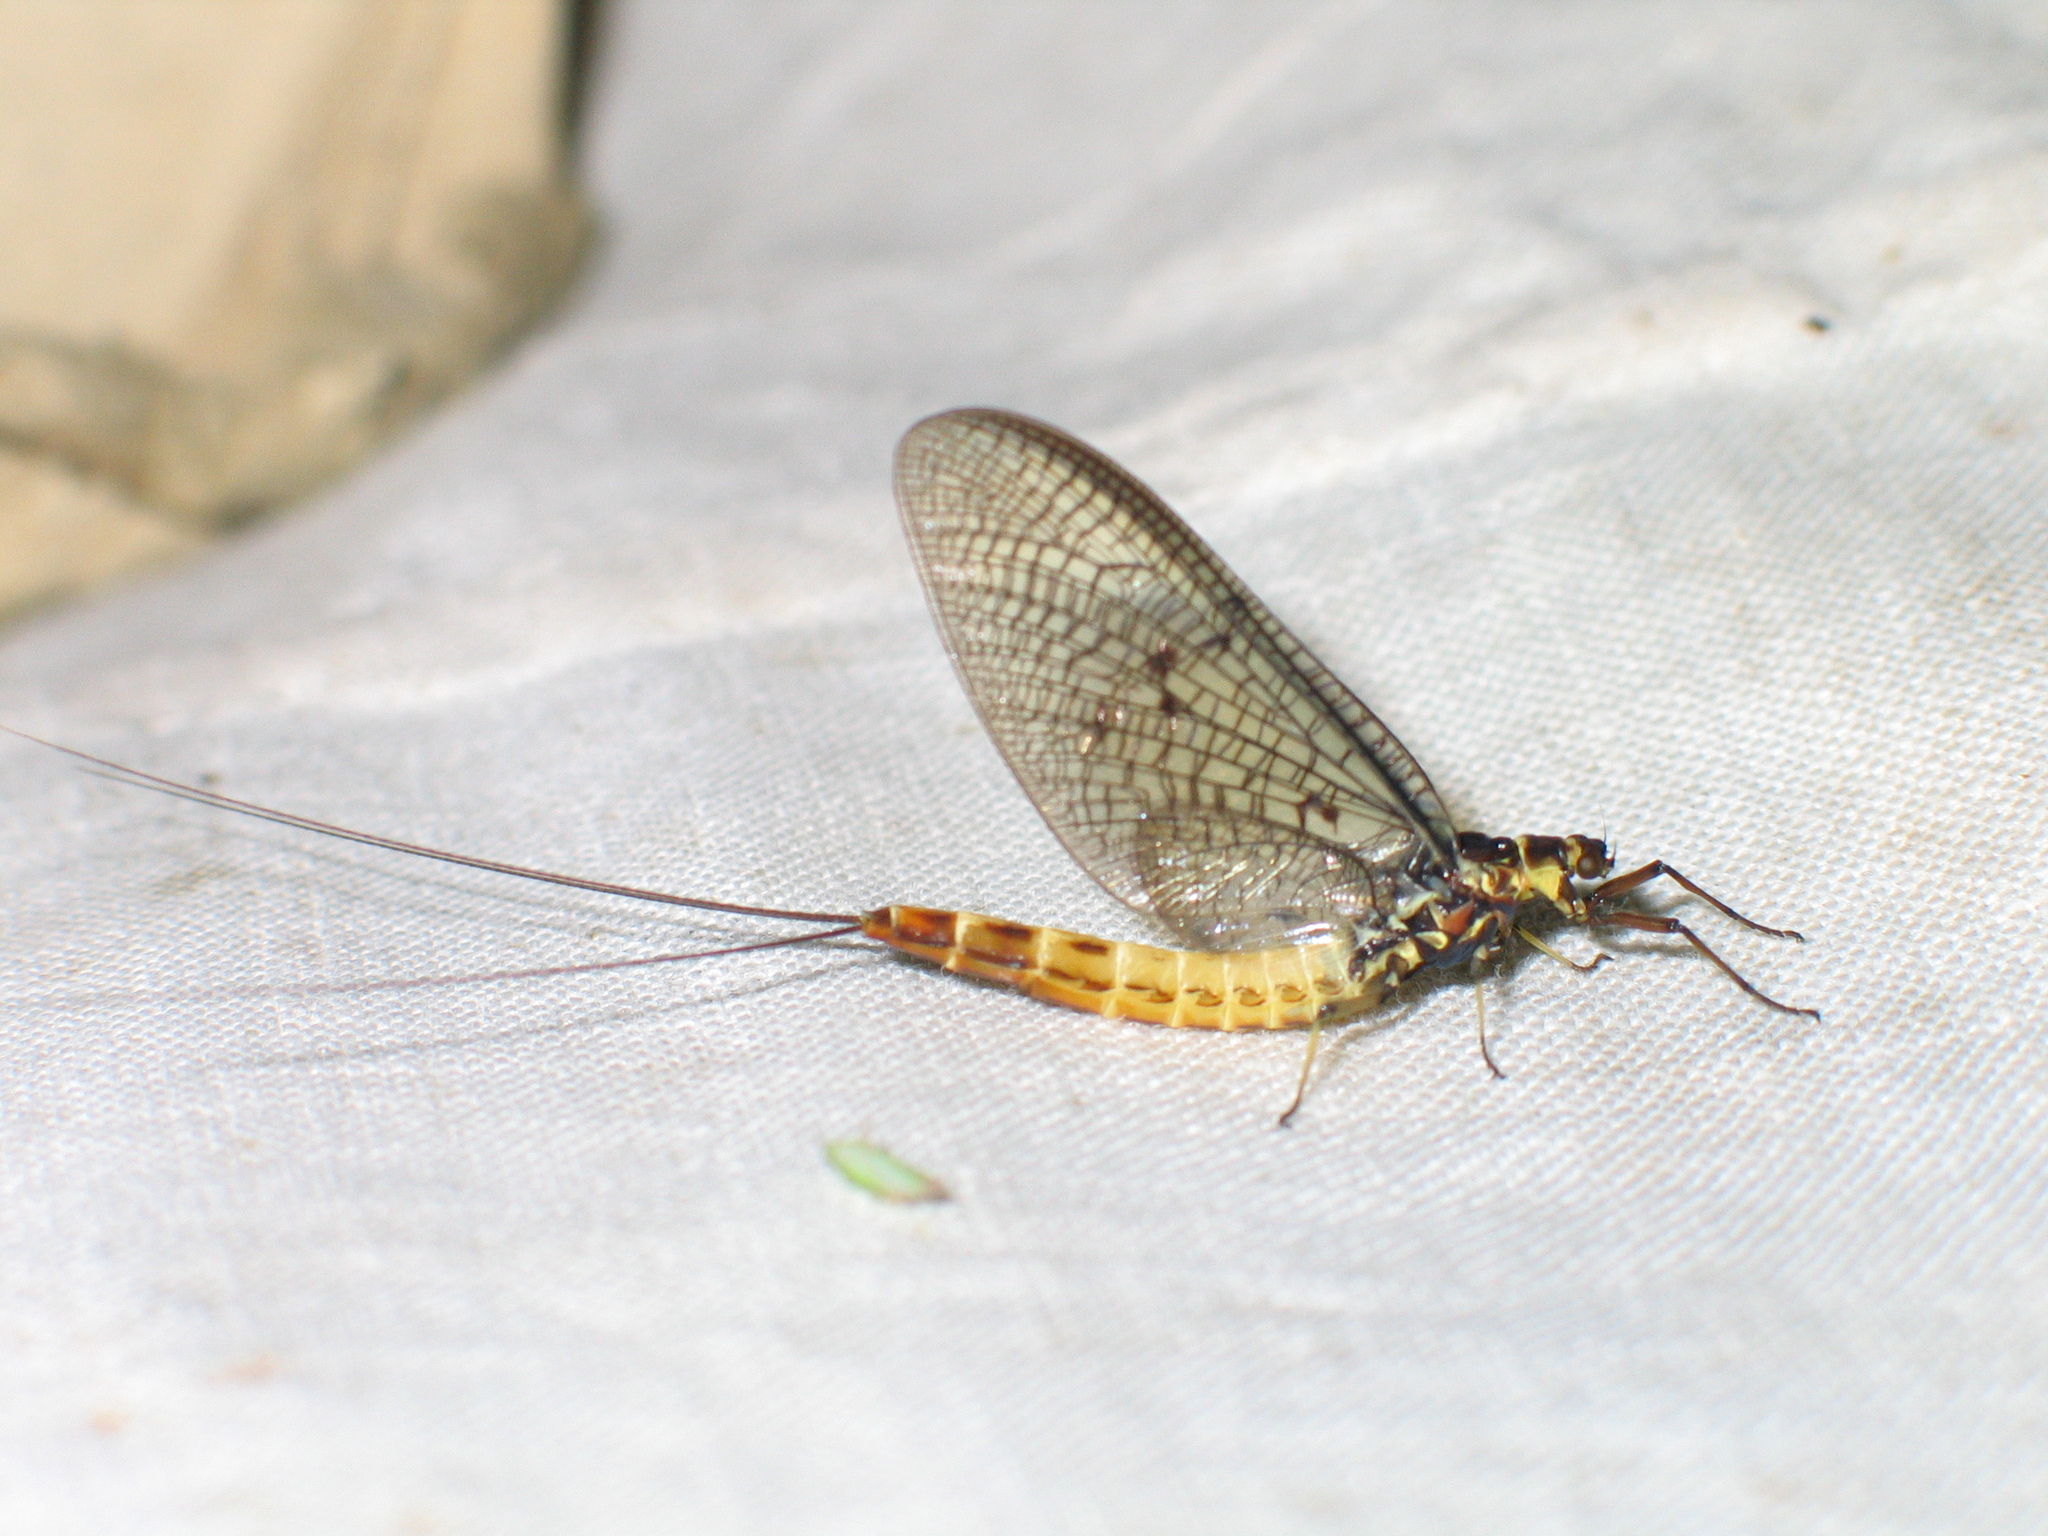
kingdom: Animalia
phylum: Arthropoda
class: Insecta
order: Ephemeroptera
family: Ephemeridae
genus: Ephemera
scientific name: Ephemera danica
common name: Green dun
